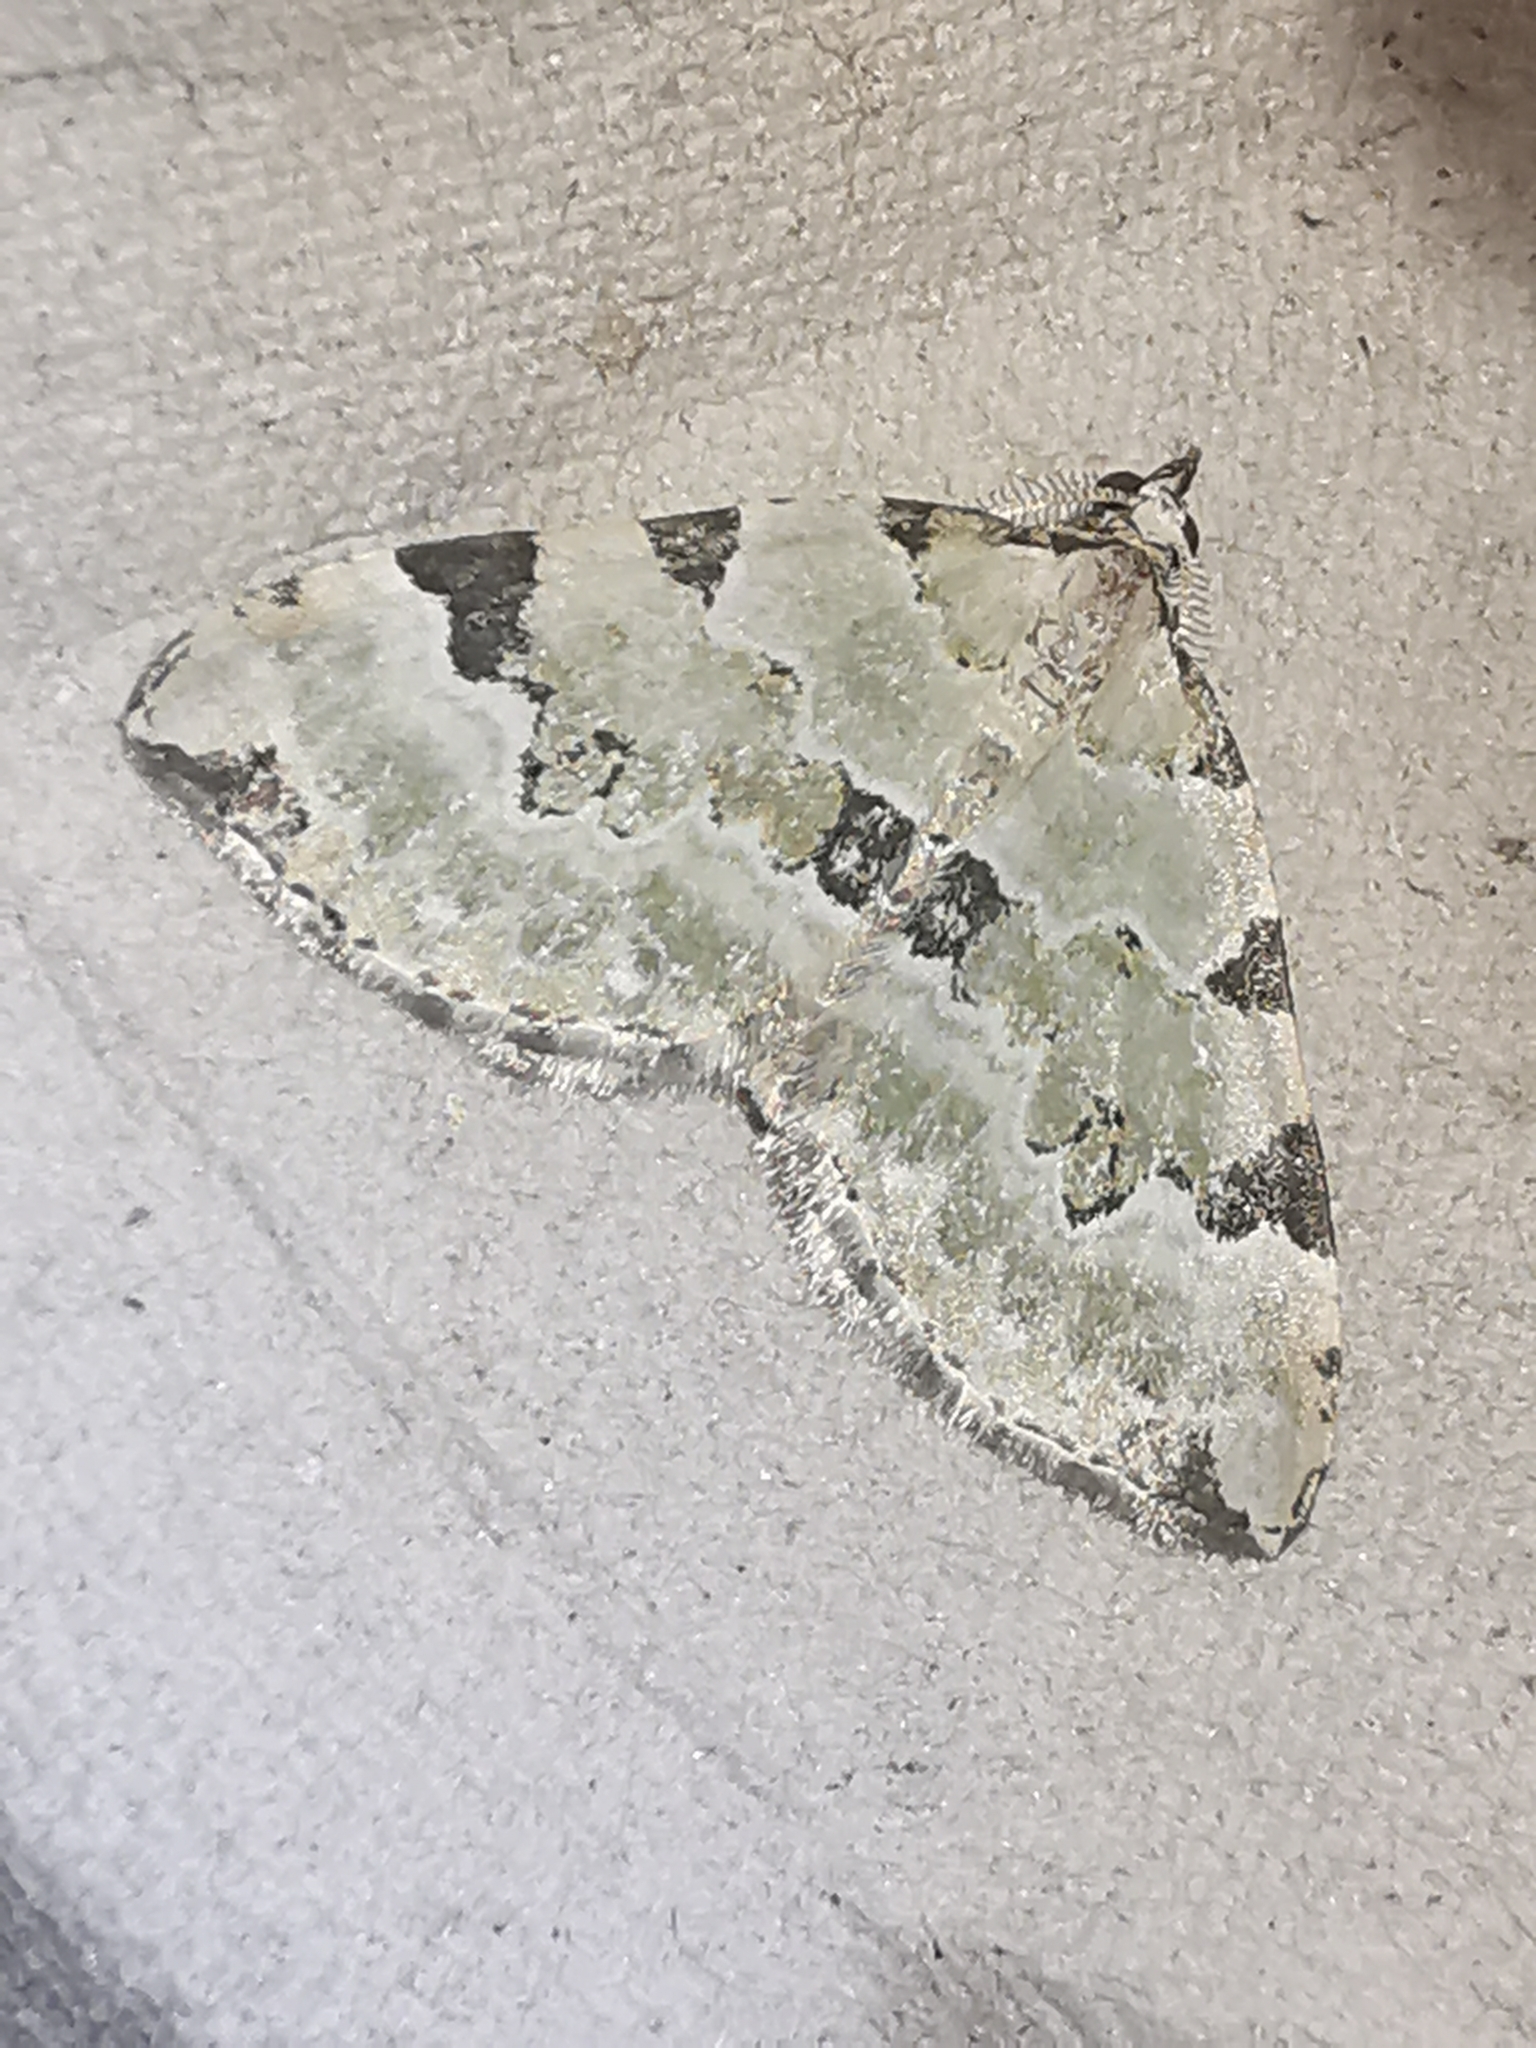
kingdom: Animalia
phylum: Arthropoda
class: Insecta
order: Lepidoptera
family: Geometridae
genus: Colostygia
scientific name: Colostygia pectinataria
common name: Green carpet
